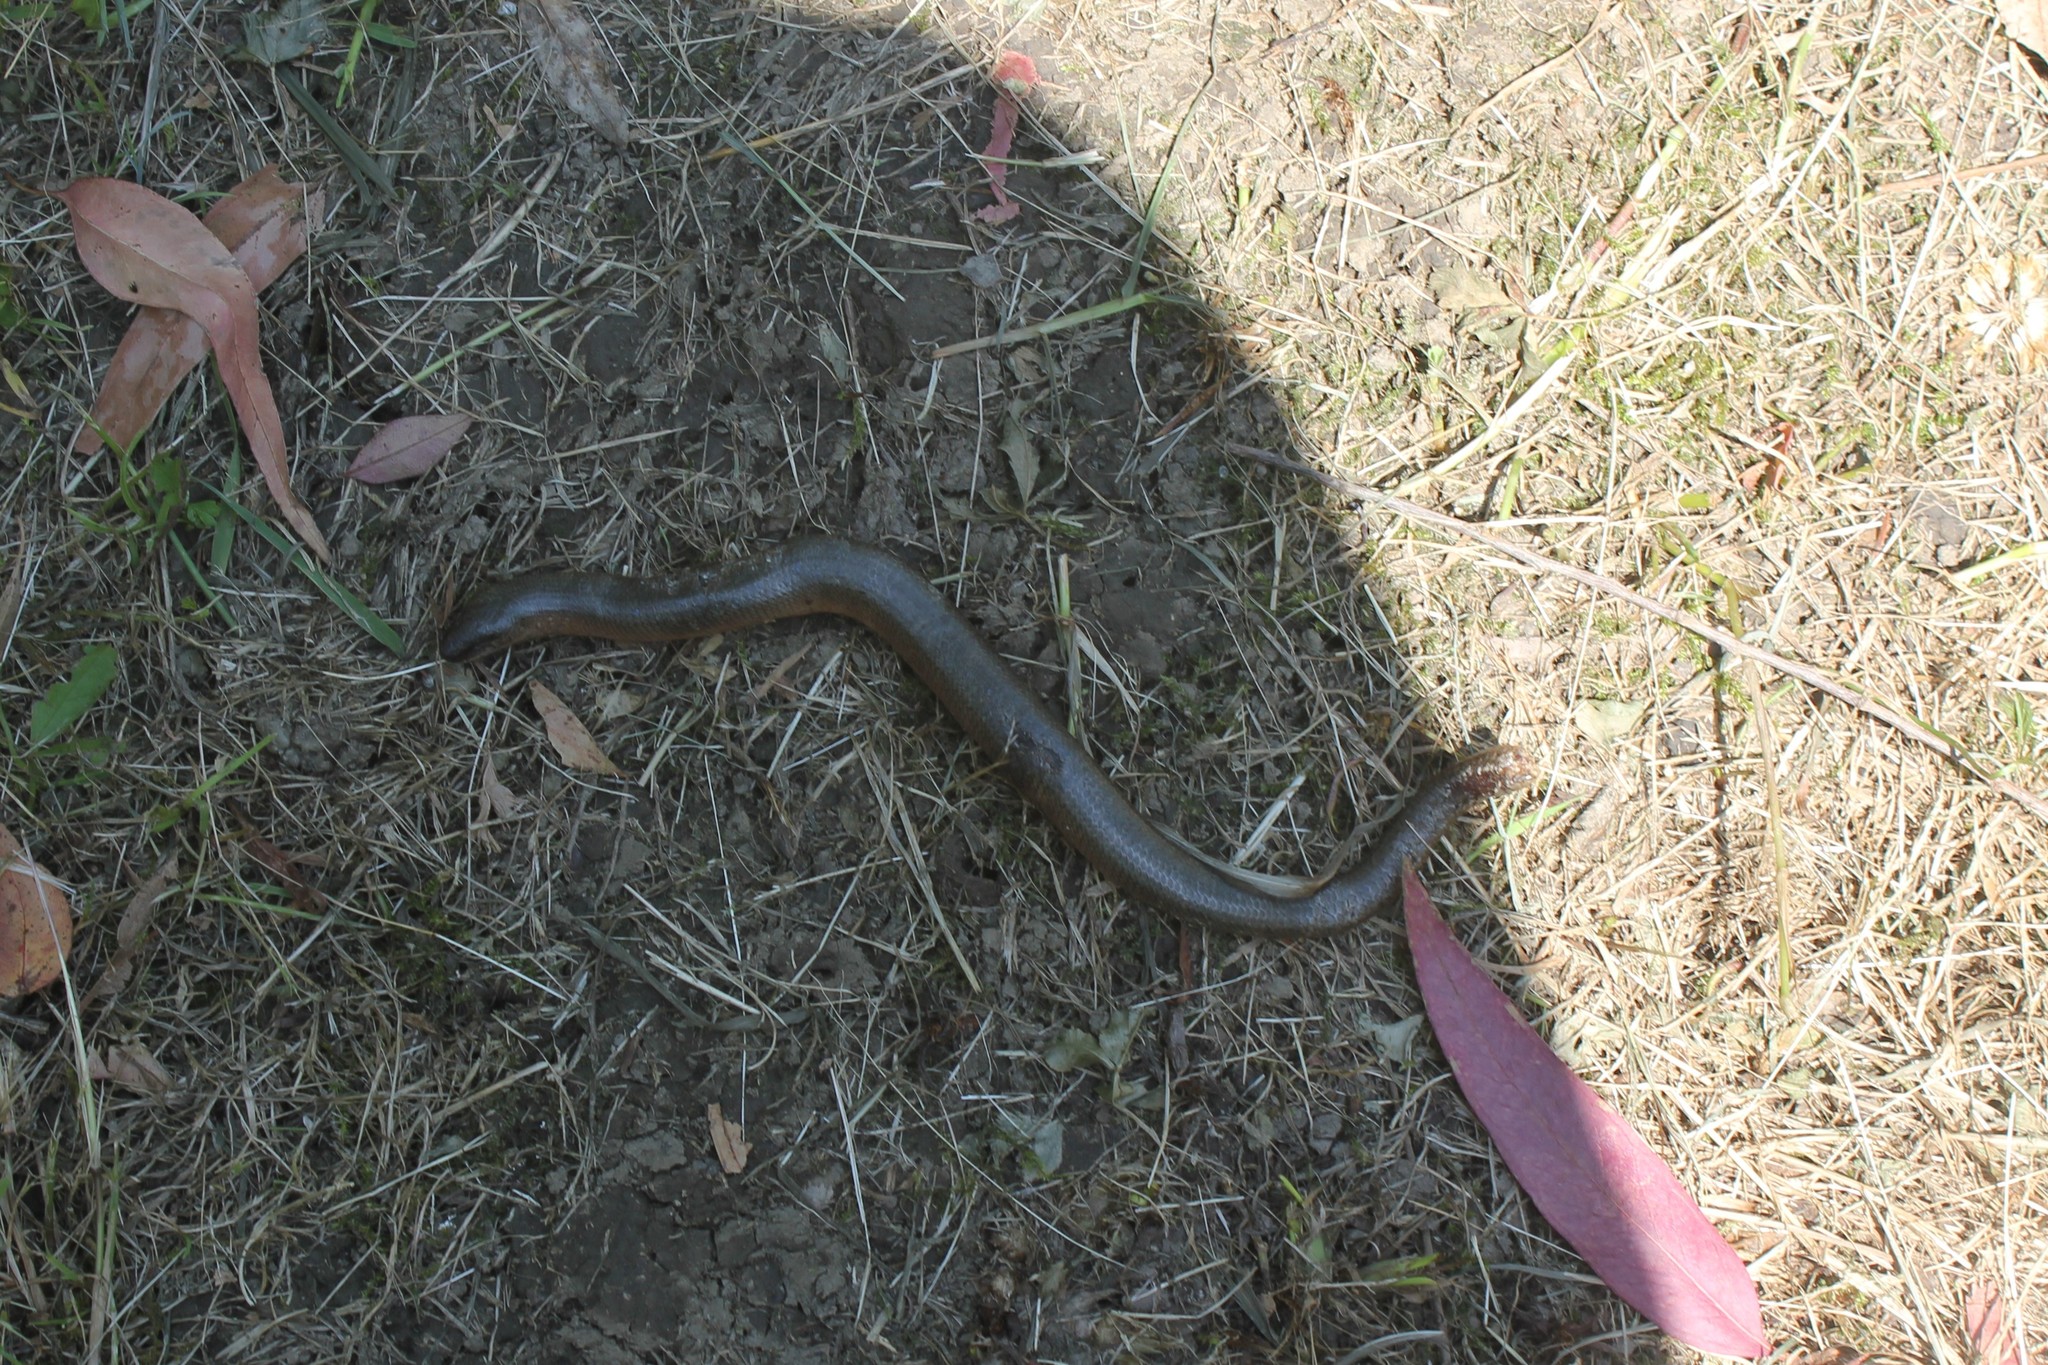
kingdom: Animalia
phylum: Chordata
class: Squamata
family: Anguidae
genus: Anguis
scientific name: Anguis colchica
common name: Slow worm
